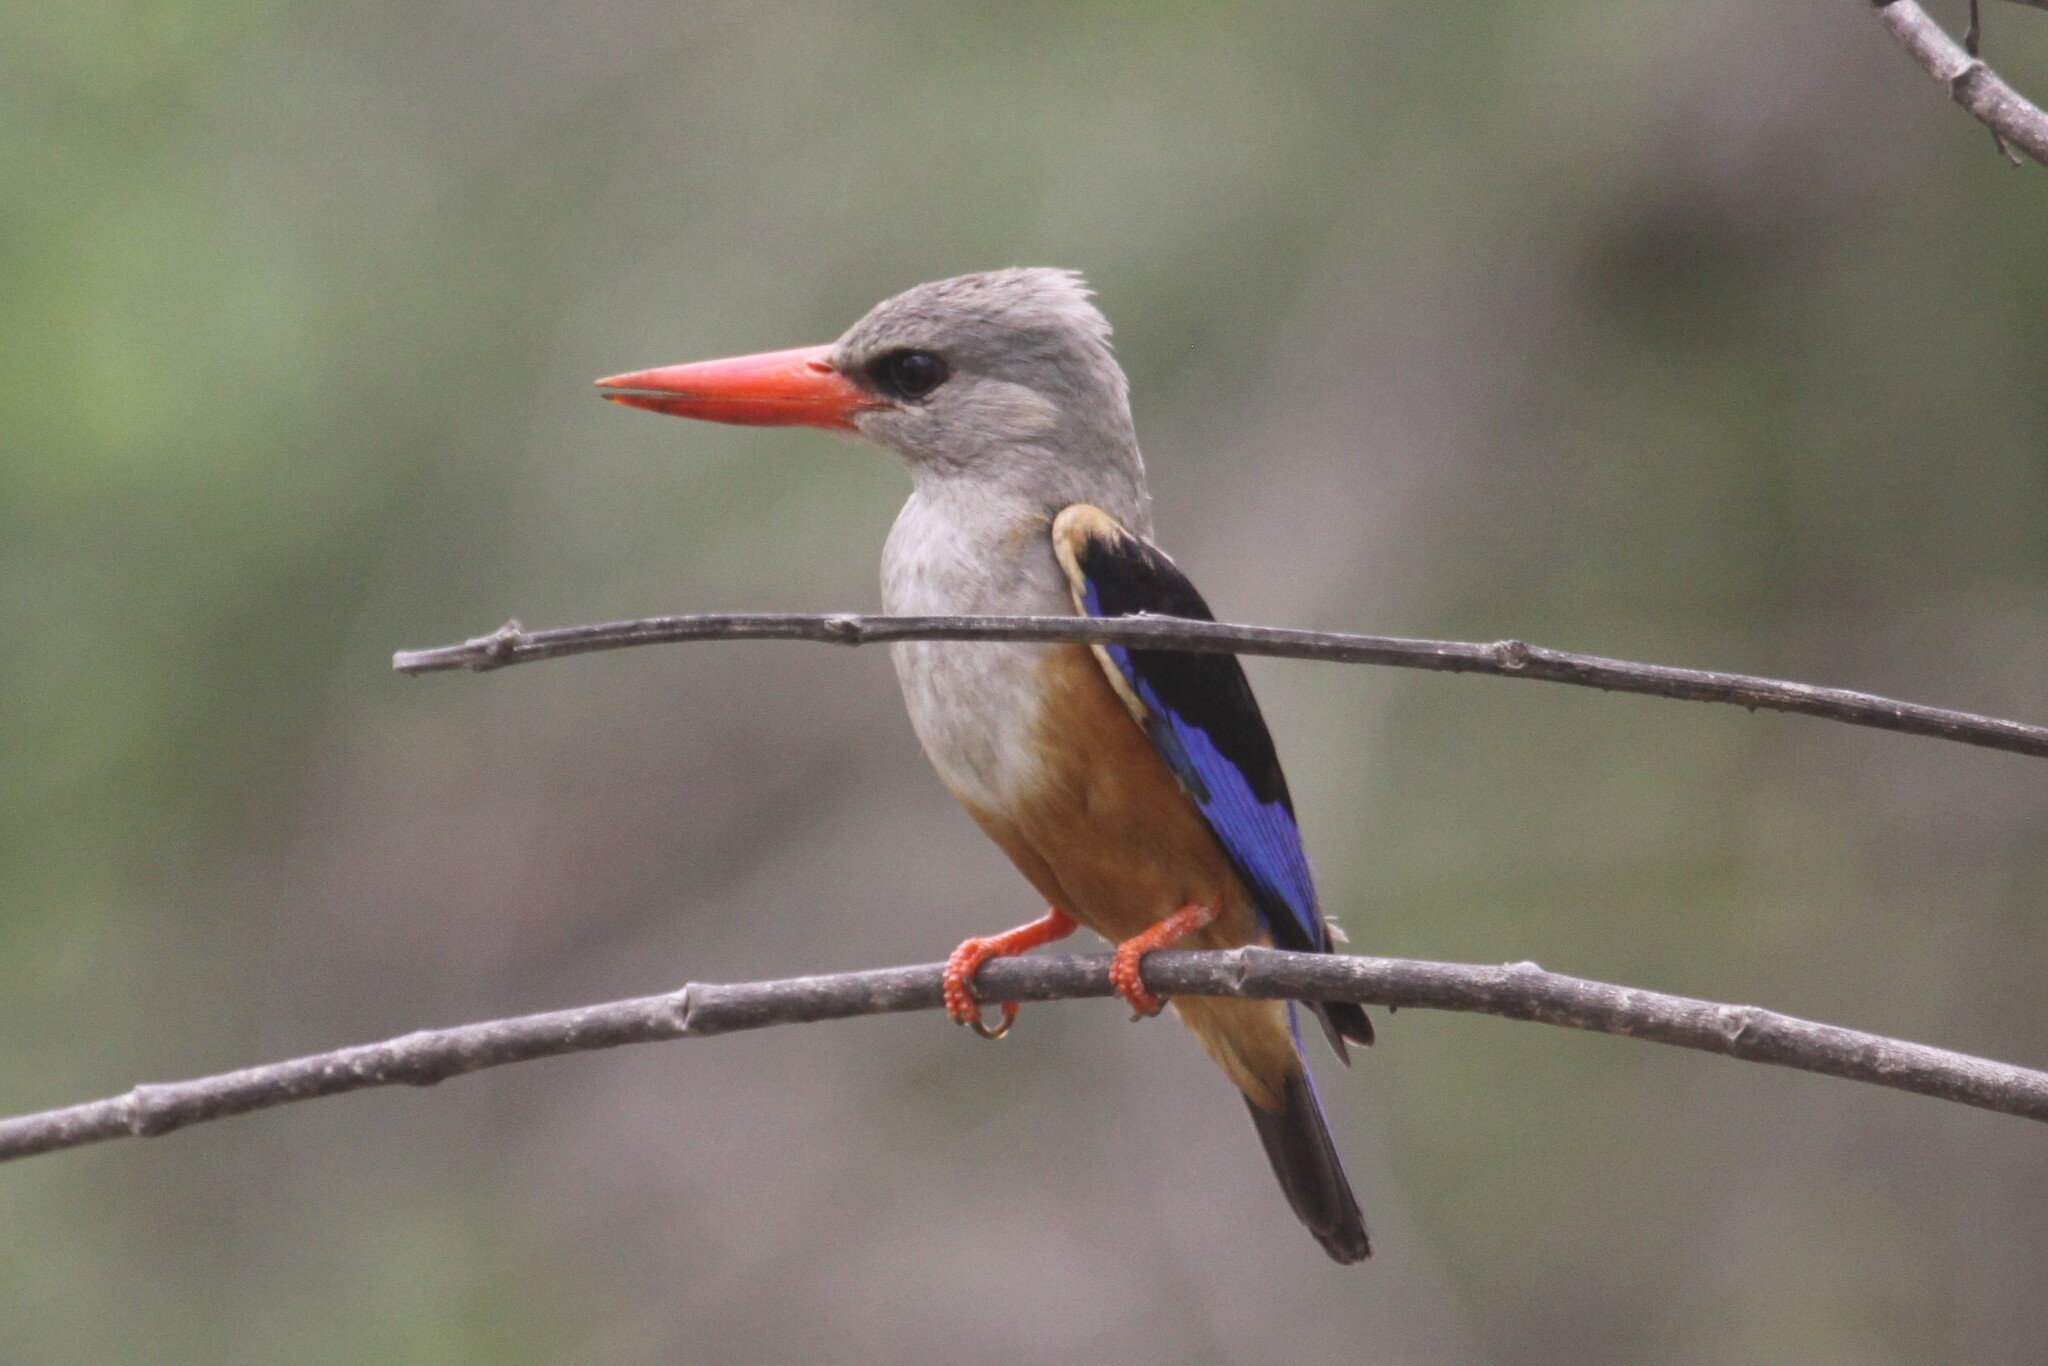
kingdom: Animalia
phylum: Chordata
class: Aves
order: Coraciiformes
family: Alcedinidae
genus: Halcyon
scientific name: Halcyon leucocephala
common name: Grey-headed kingfisher
